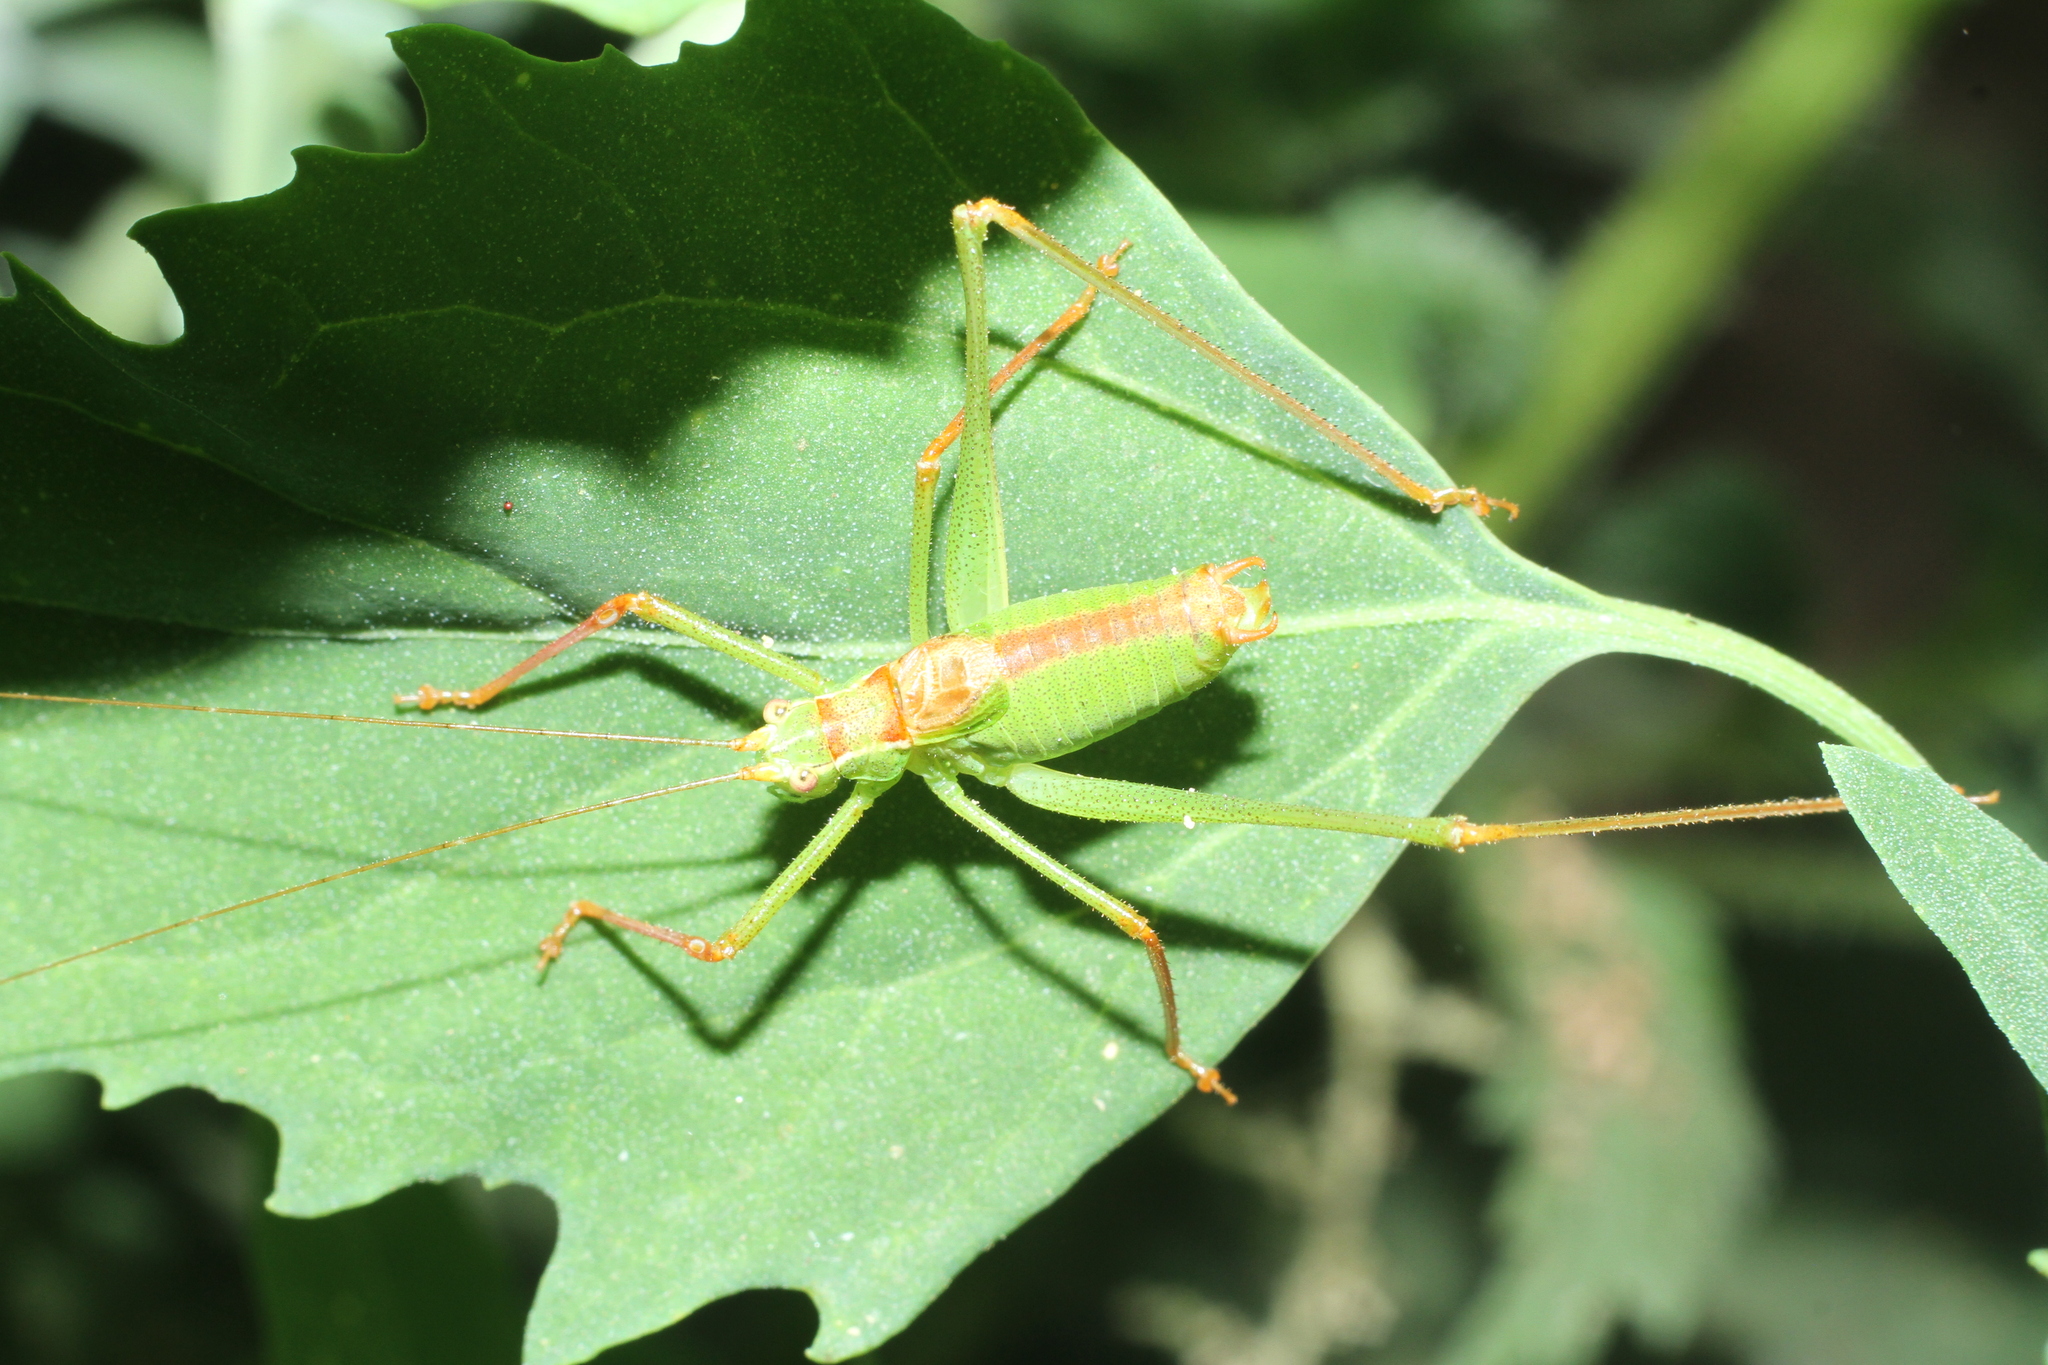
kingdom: Animalia
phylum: Arthropoda
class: Insecta
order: Orthoptera
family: Tettigoniidae
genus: Leptophyes
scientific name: Leptophyes punctatissima
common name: Speckled bush-cricket
